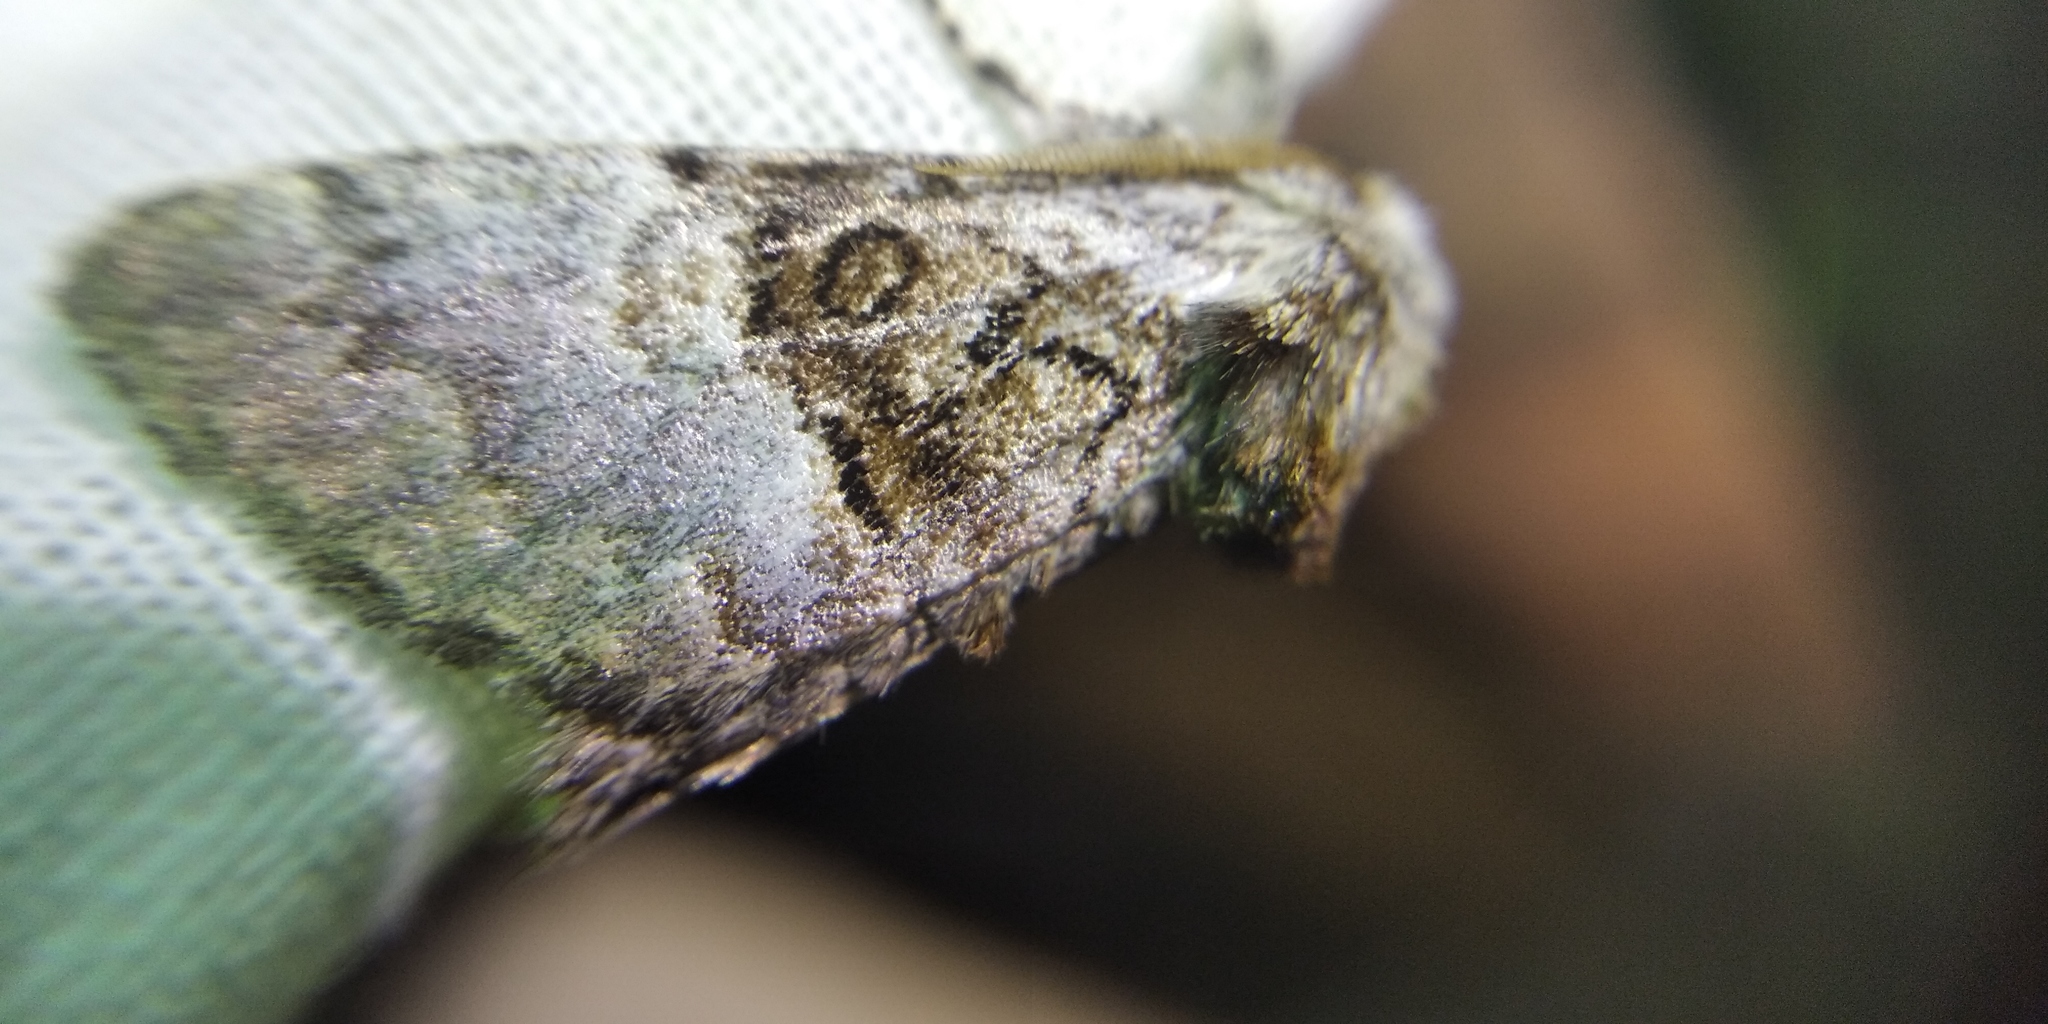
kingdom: Animalia
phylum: Arthropoda
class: Insecta
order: Lepidoptera
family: Noctuidae
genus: Colocasia
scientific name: Colocasia coryli
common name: Nut-tree tussock
